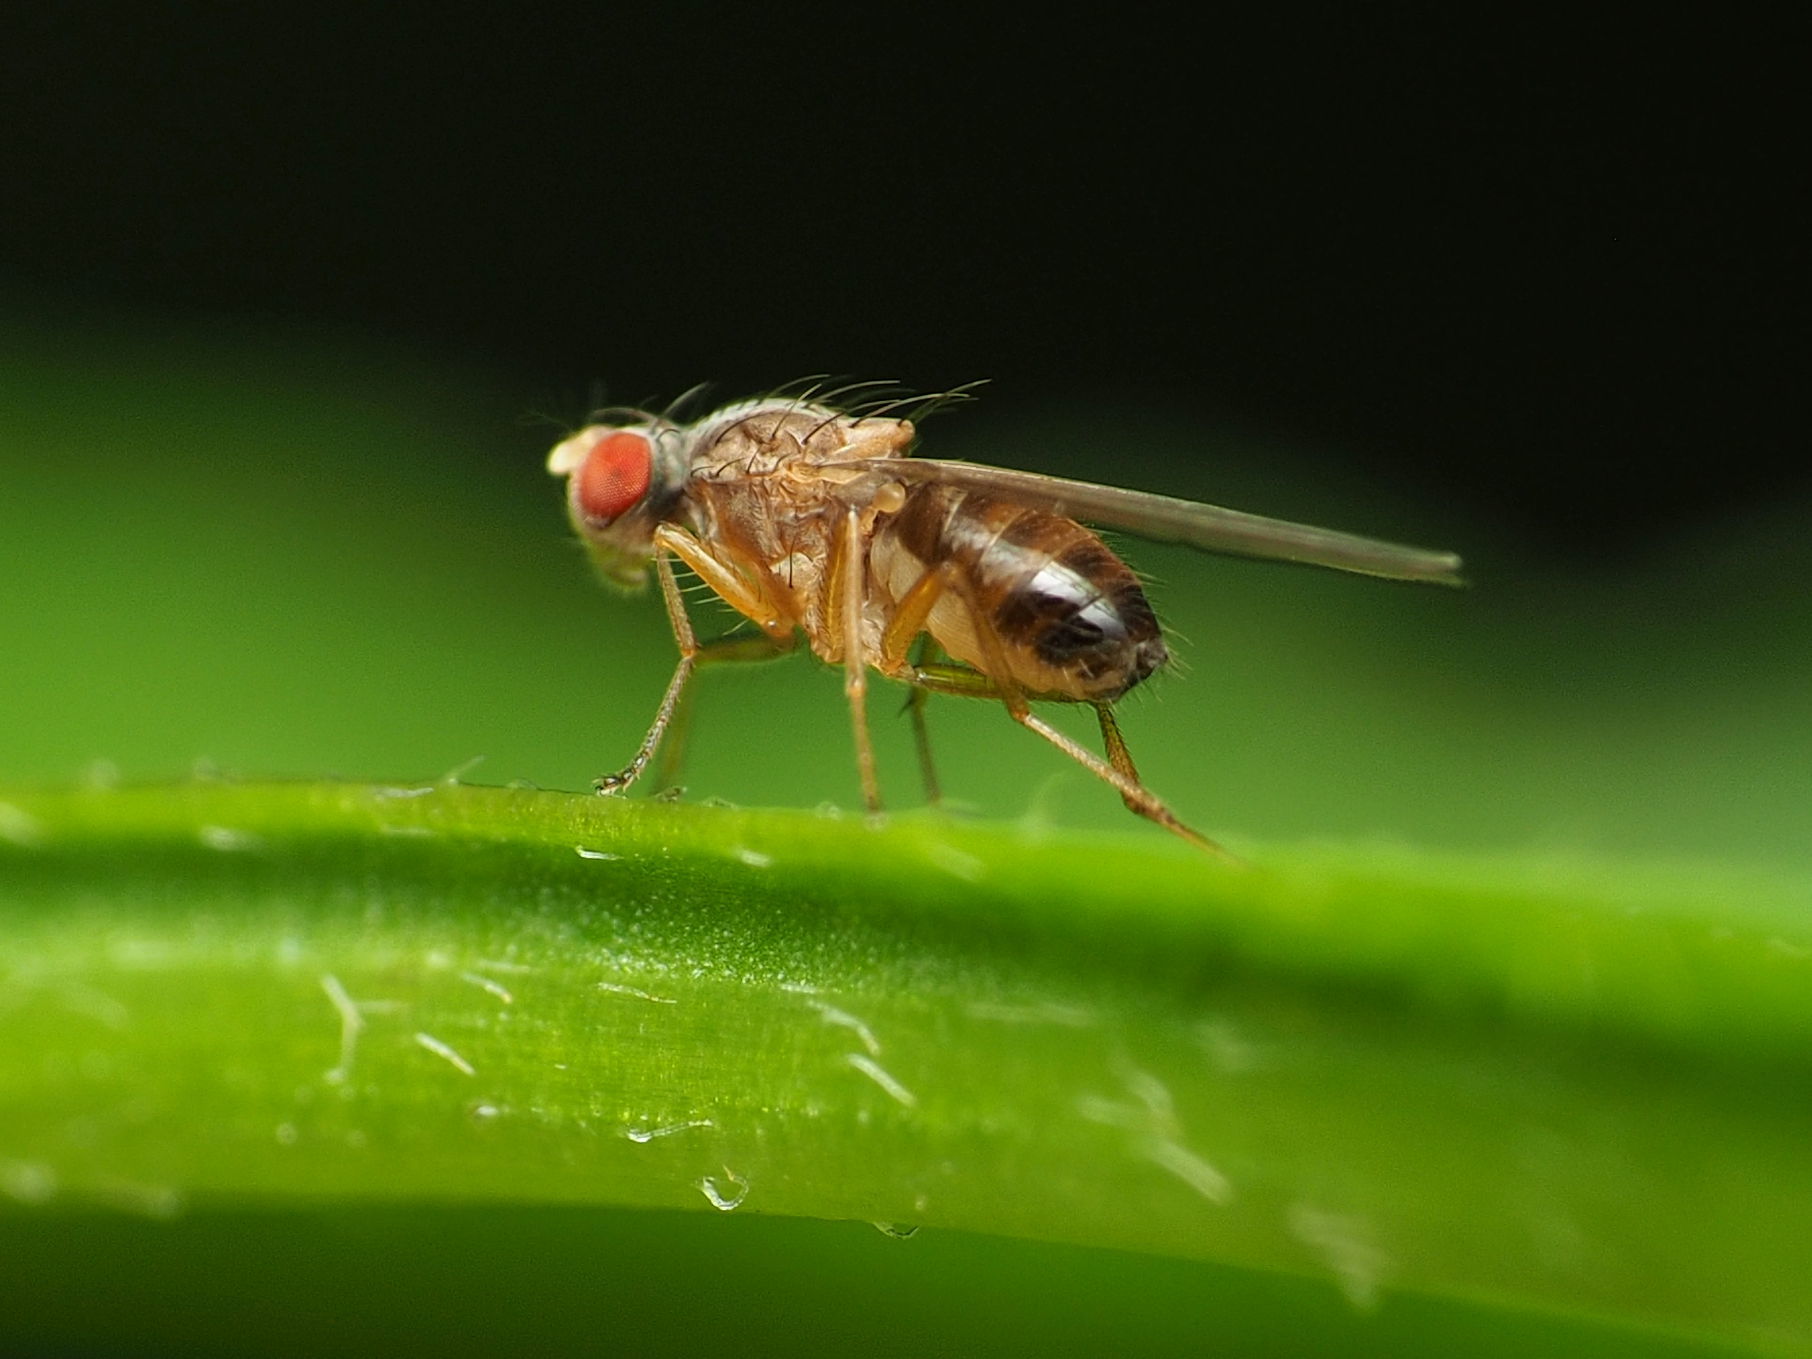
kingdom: Animalia
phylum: Arthropoda
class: Insecta
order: Diptera
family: Drosophilidae
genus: Scaptomyza
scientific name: Scaptomyza pallida
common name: Pomace fly
